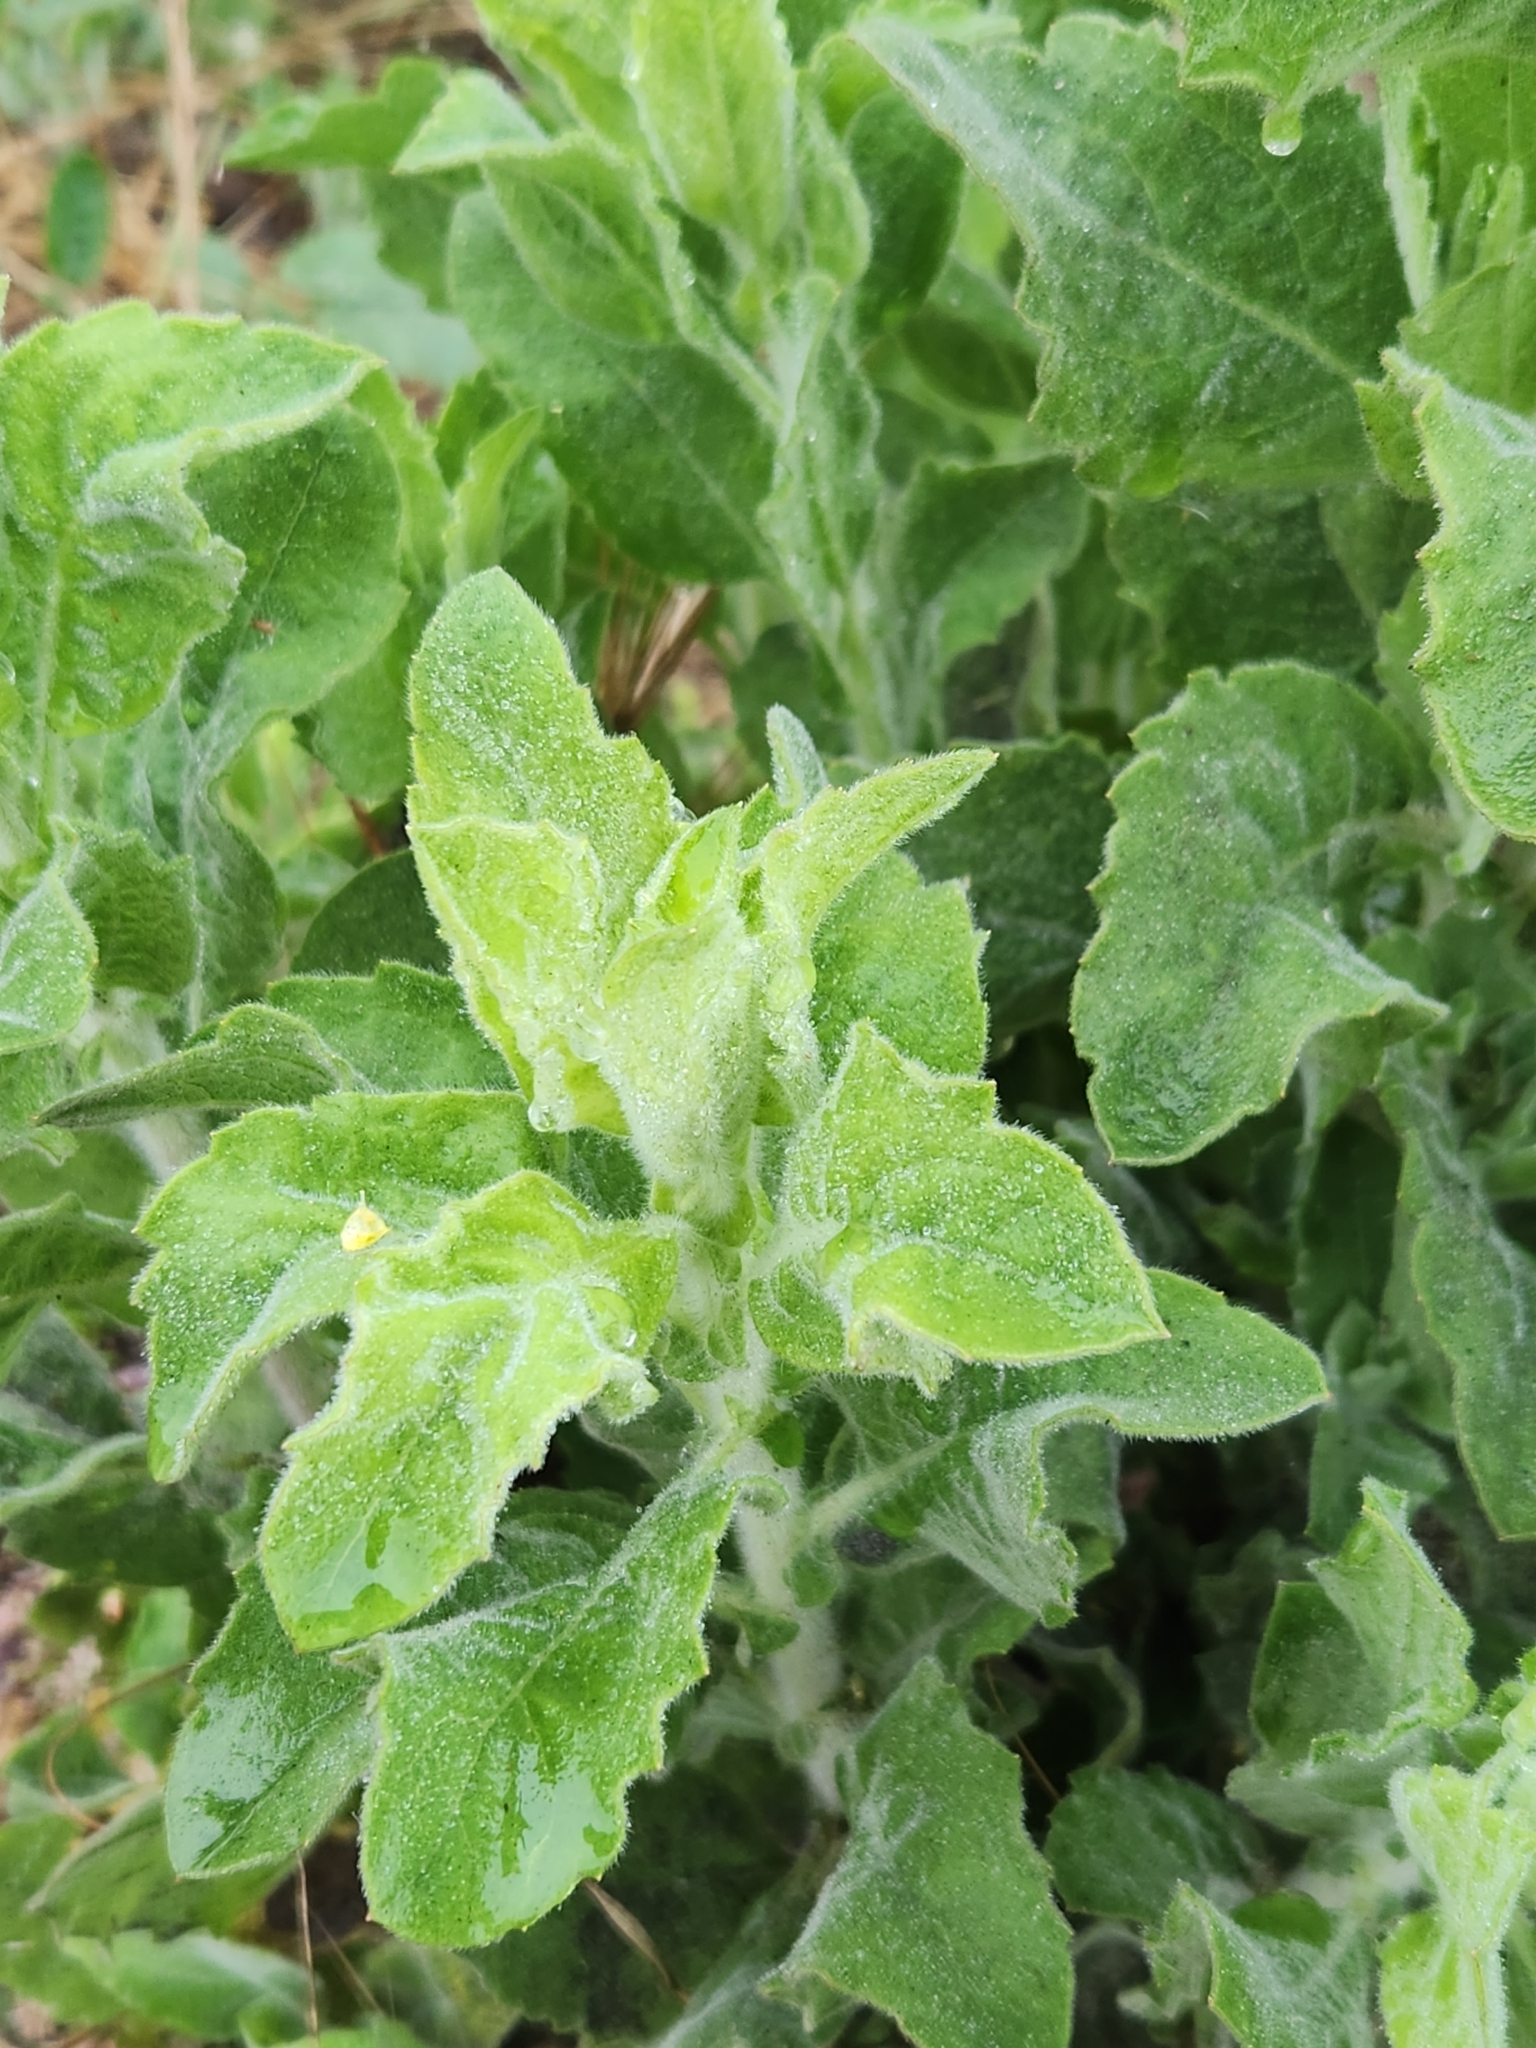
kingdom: Plantae
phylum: Tracheophyta
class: Magnoliopsida
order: Asterales
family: Asteraceae
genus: Heterotheca
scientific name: Heterotheca grandiflora
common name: Telegraphweed
